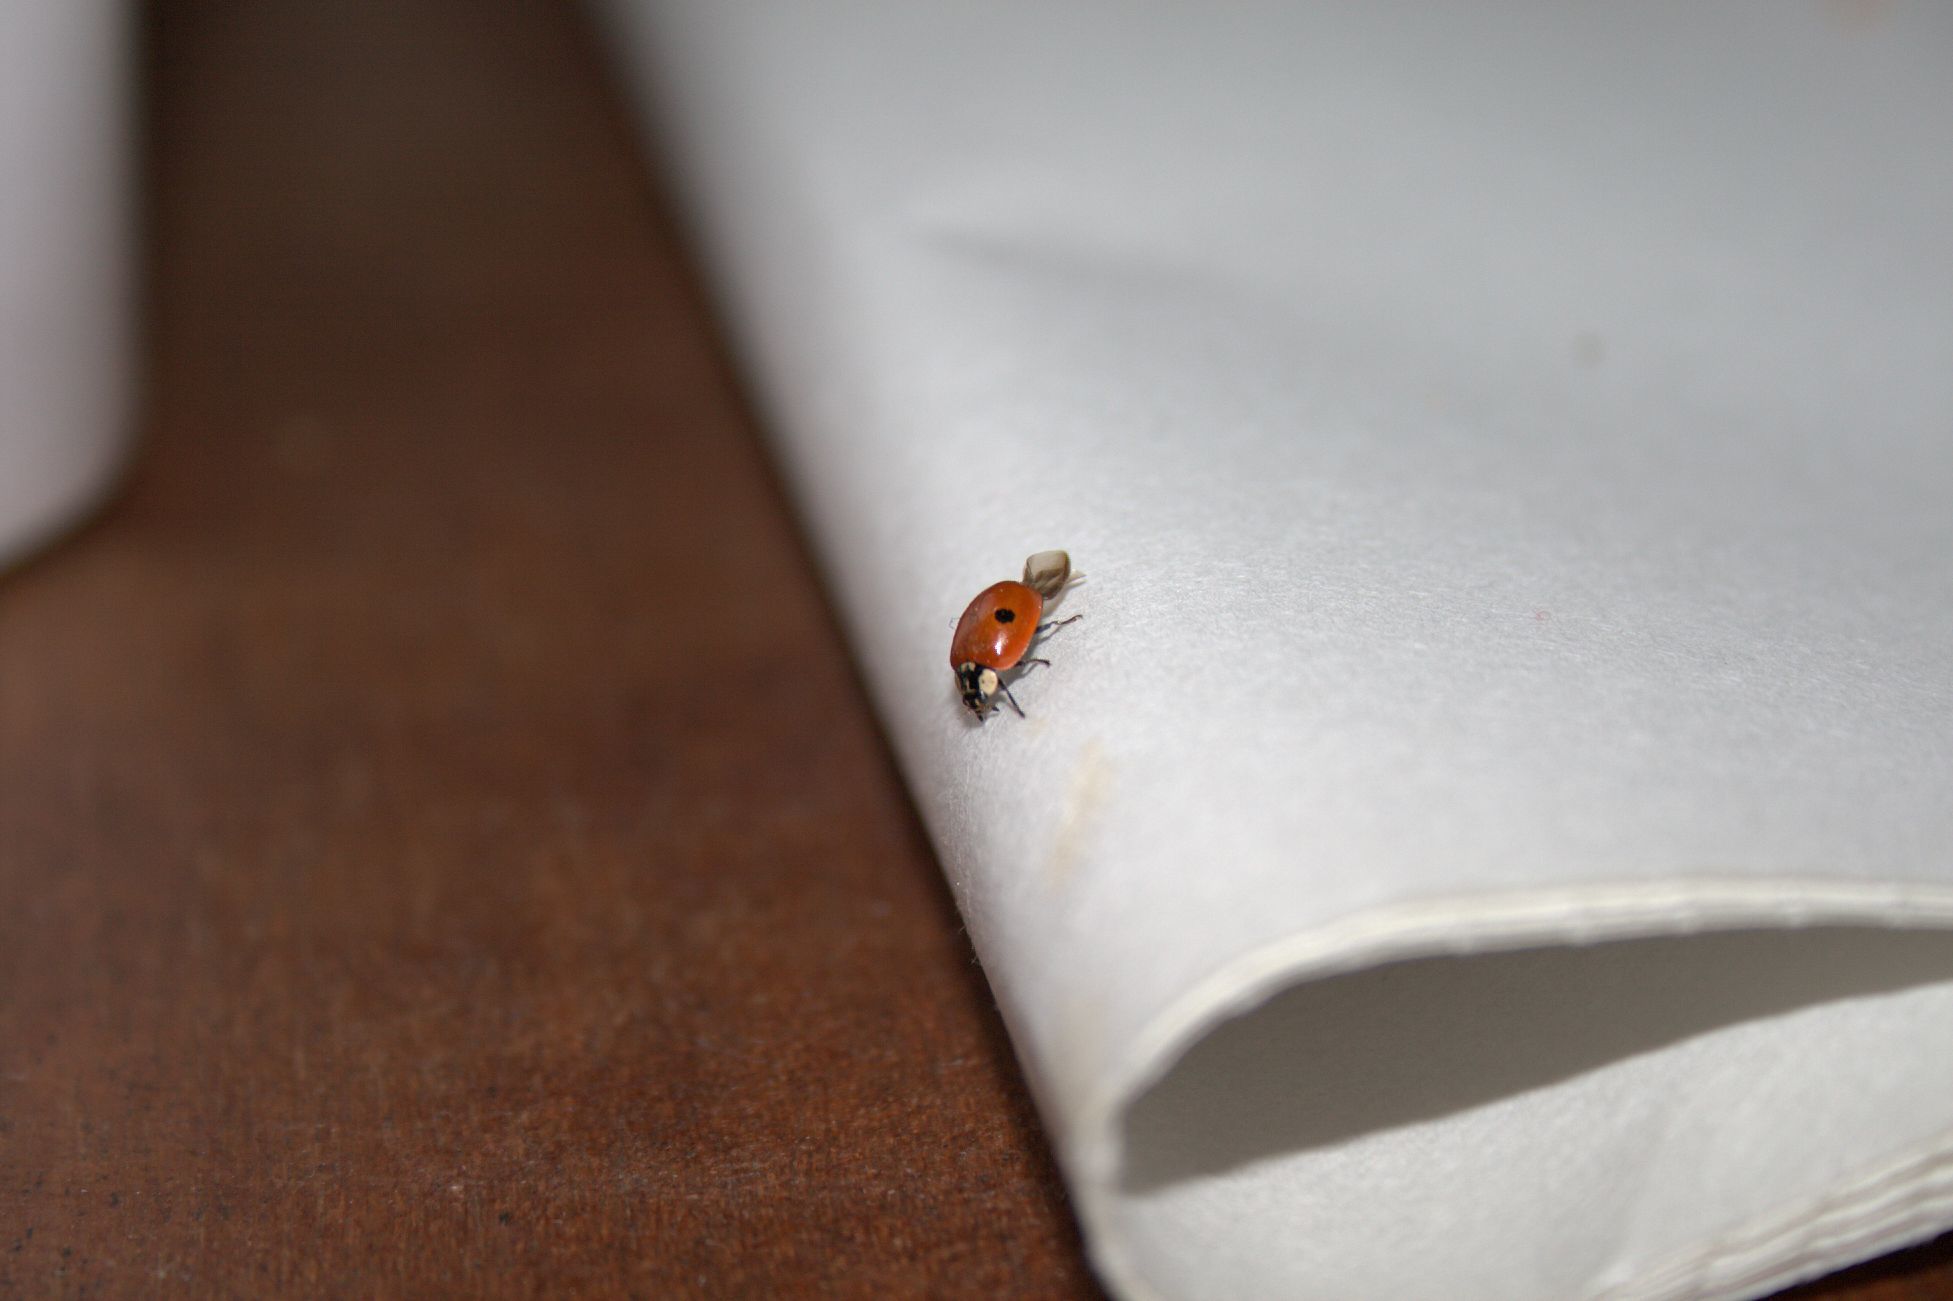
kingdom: Animalia
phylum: Arthropoda
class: Insecta
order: Coleoptera
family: Coccinellidae
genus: Adalia
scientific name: Adalia bipunctata
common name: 2-spot ladybird
